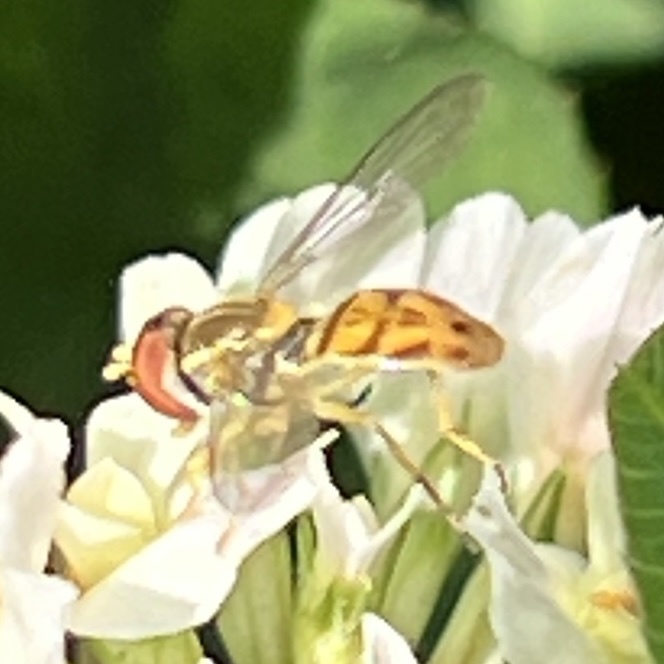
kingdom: Animalia
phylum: Arthropoda
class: Insecta
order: Diptera
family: Syrphidae
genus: Toxomerus
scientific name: Toxomerus marginatus
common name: Syrphid fly
